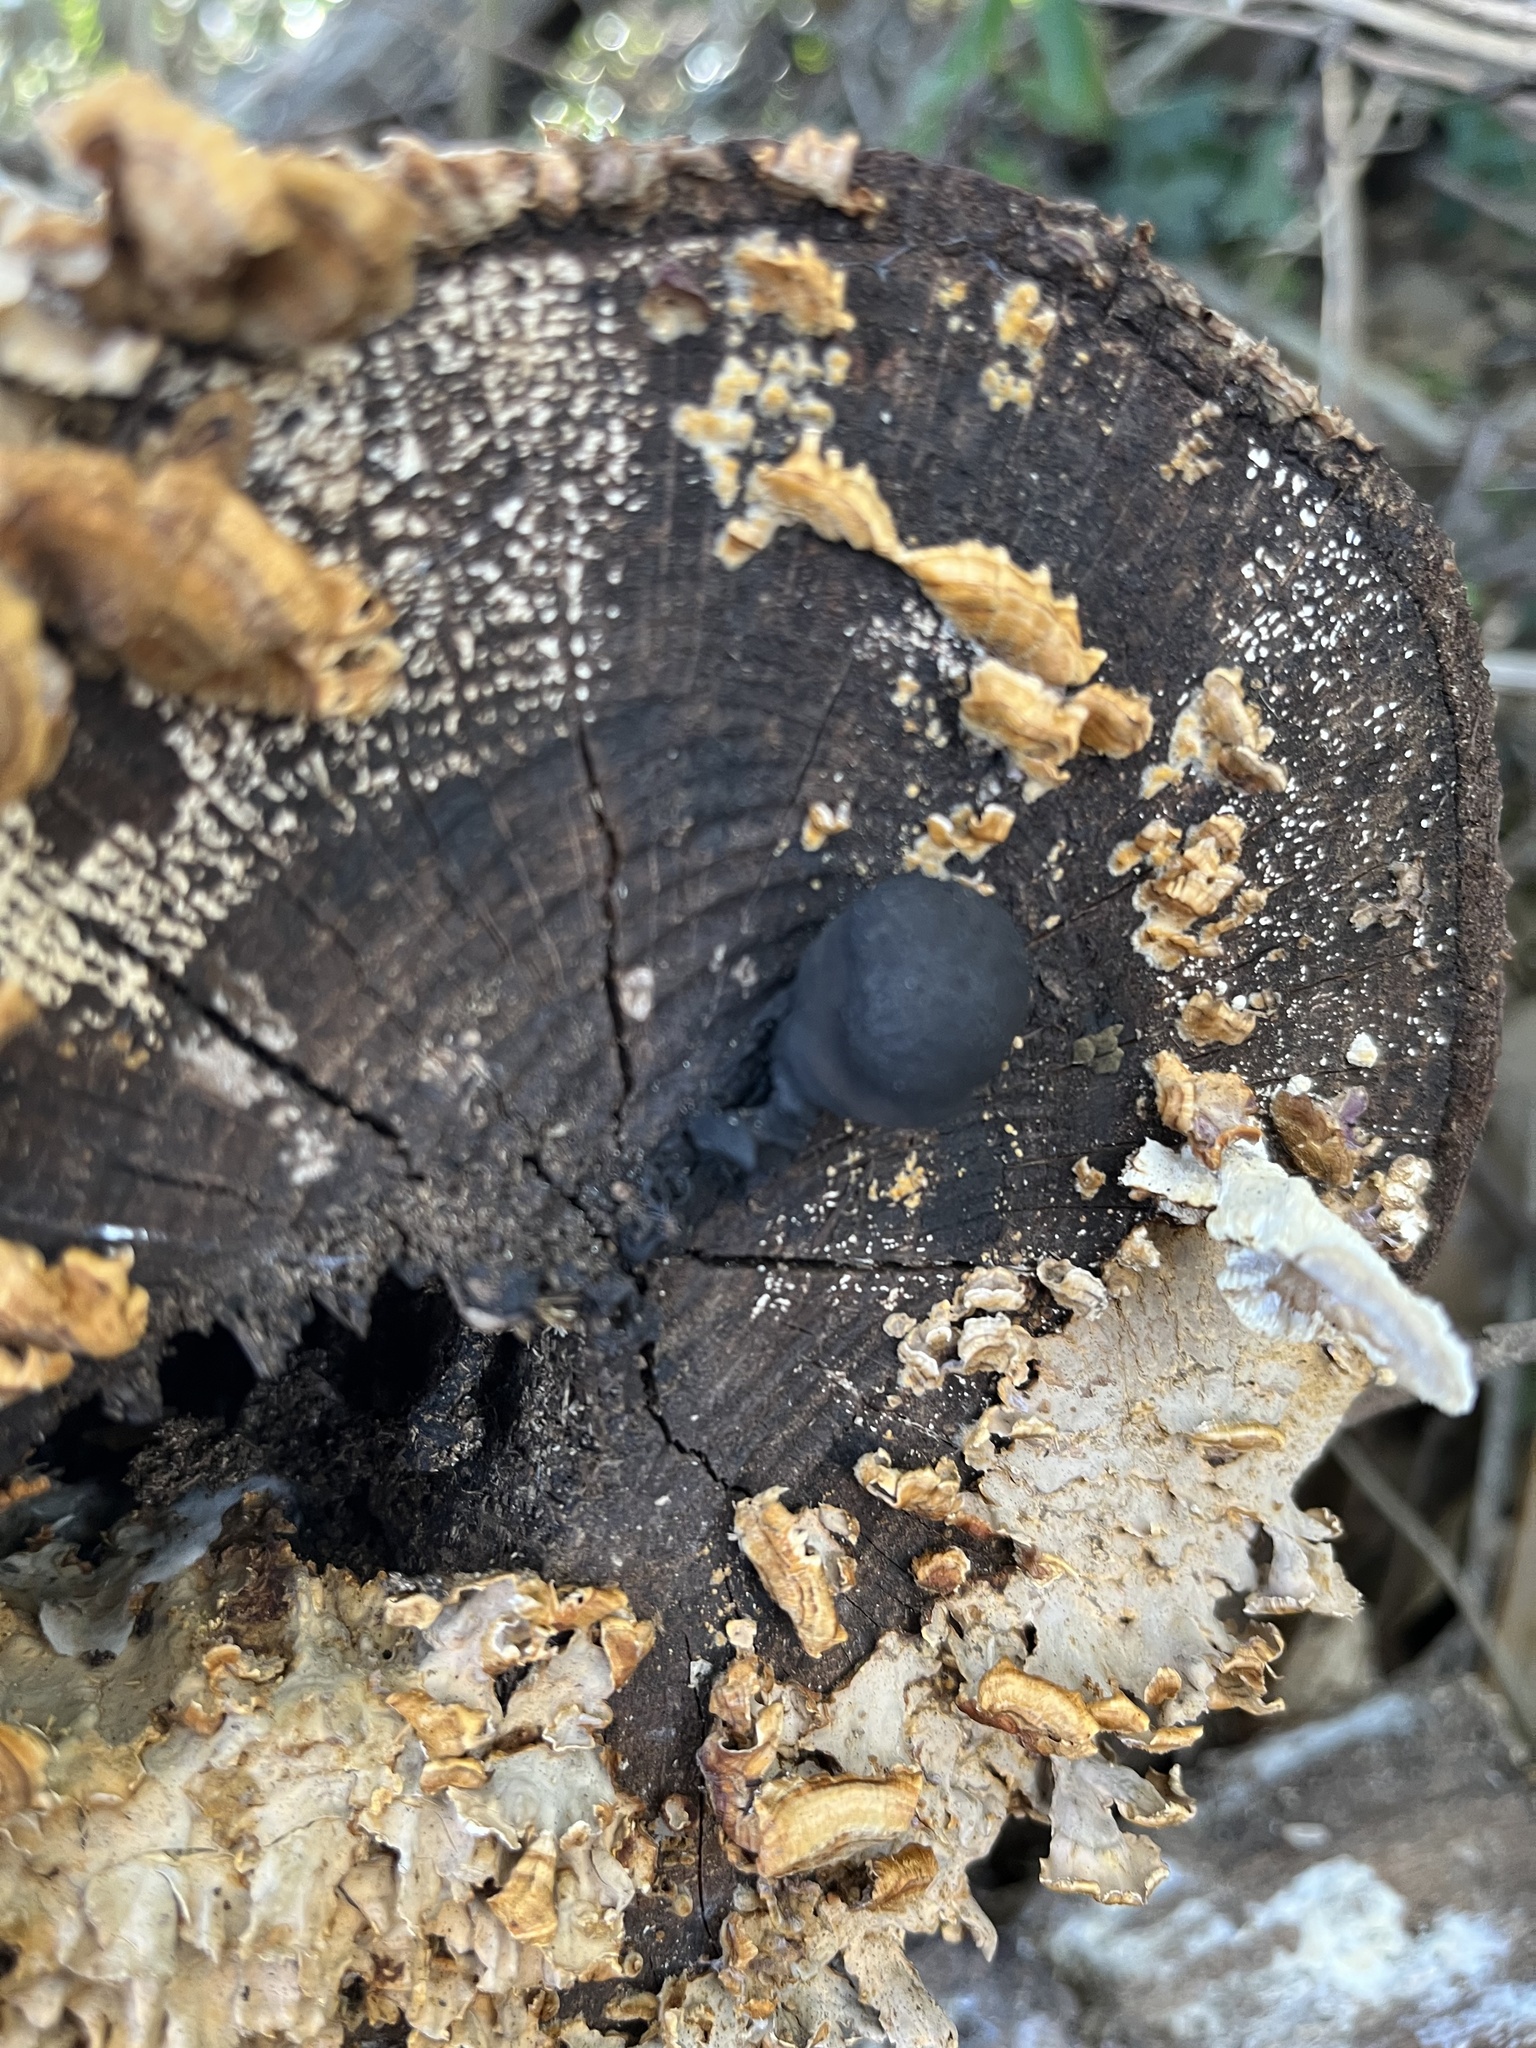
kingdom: Fungi
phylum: Basidiomycota
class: Agaricomycetes
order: Russulales
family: Stereaceae
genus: Stereum
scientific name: Stereum complicatum
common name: Crowded parchment
